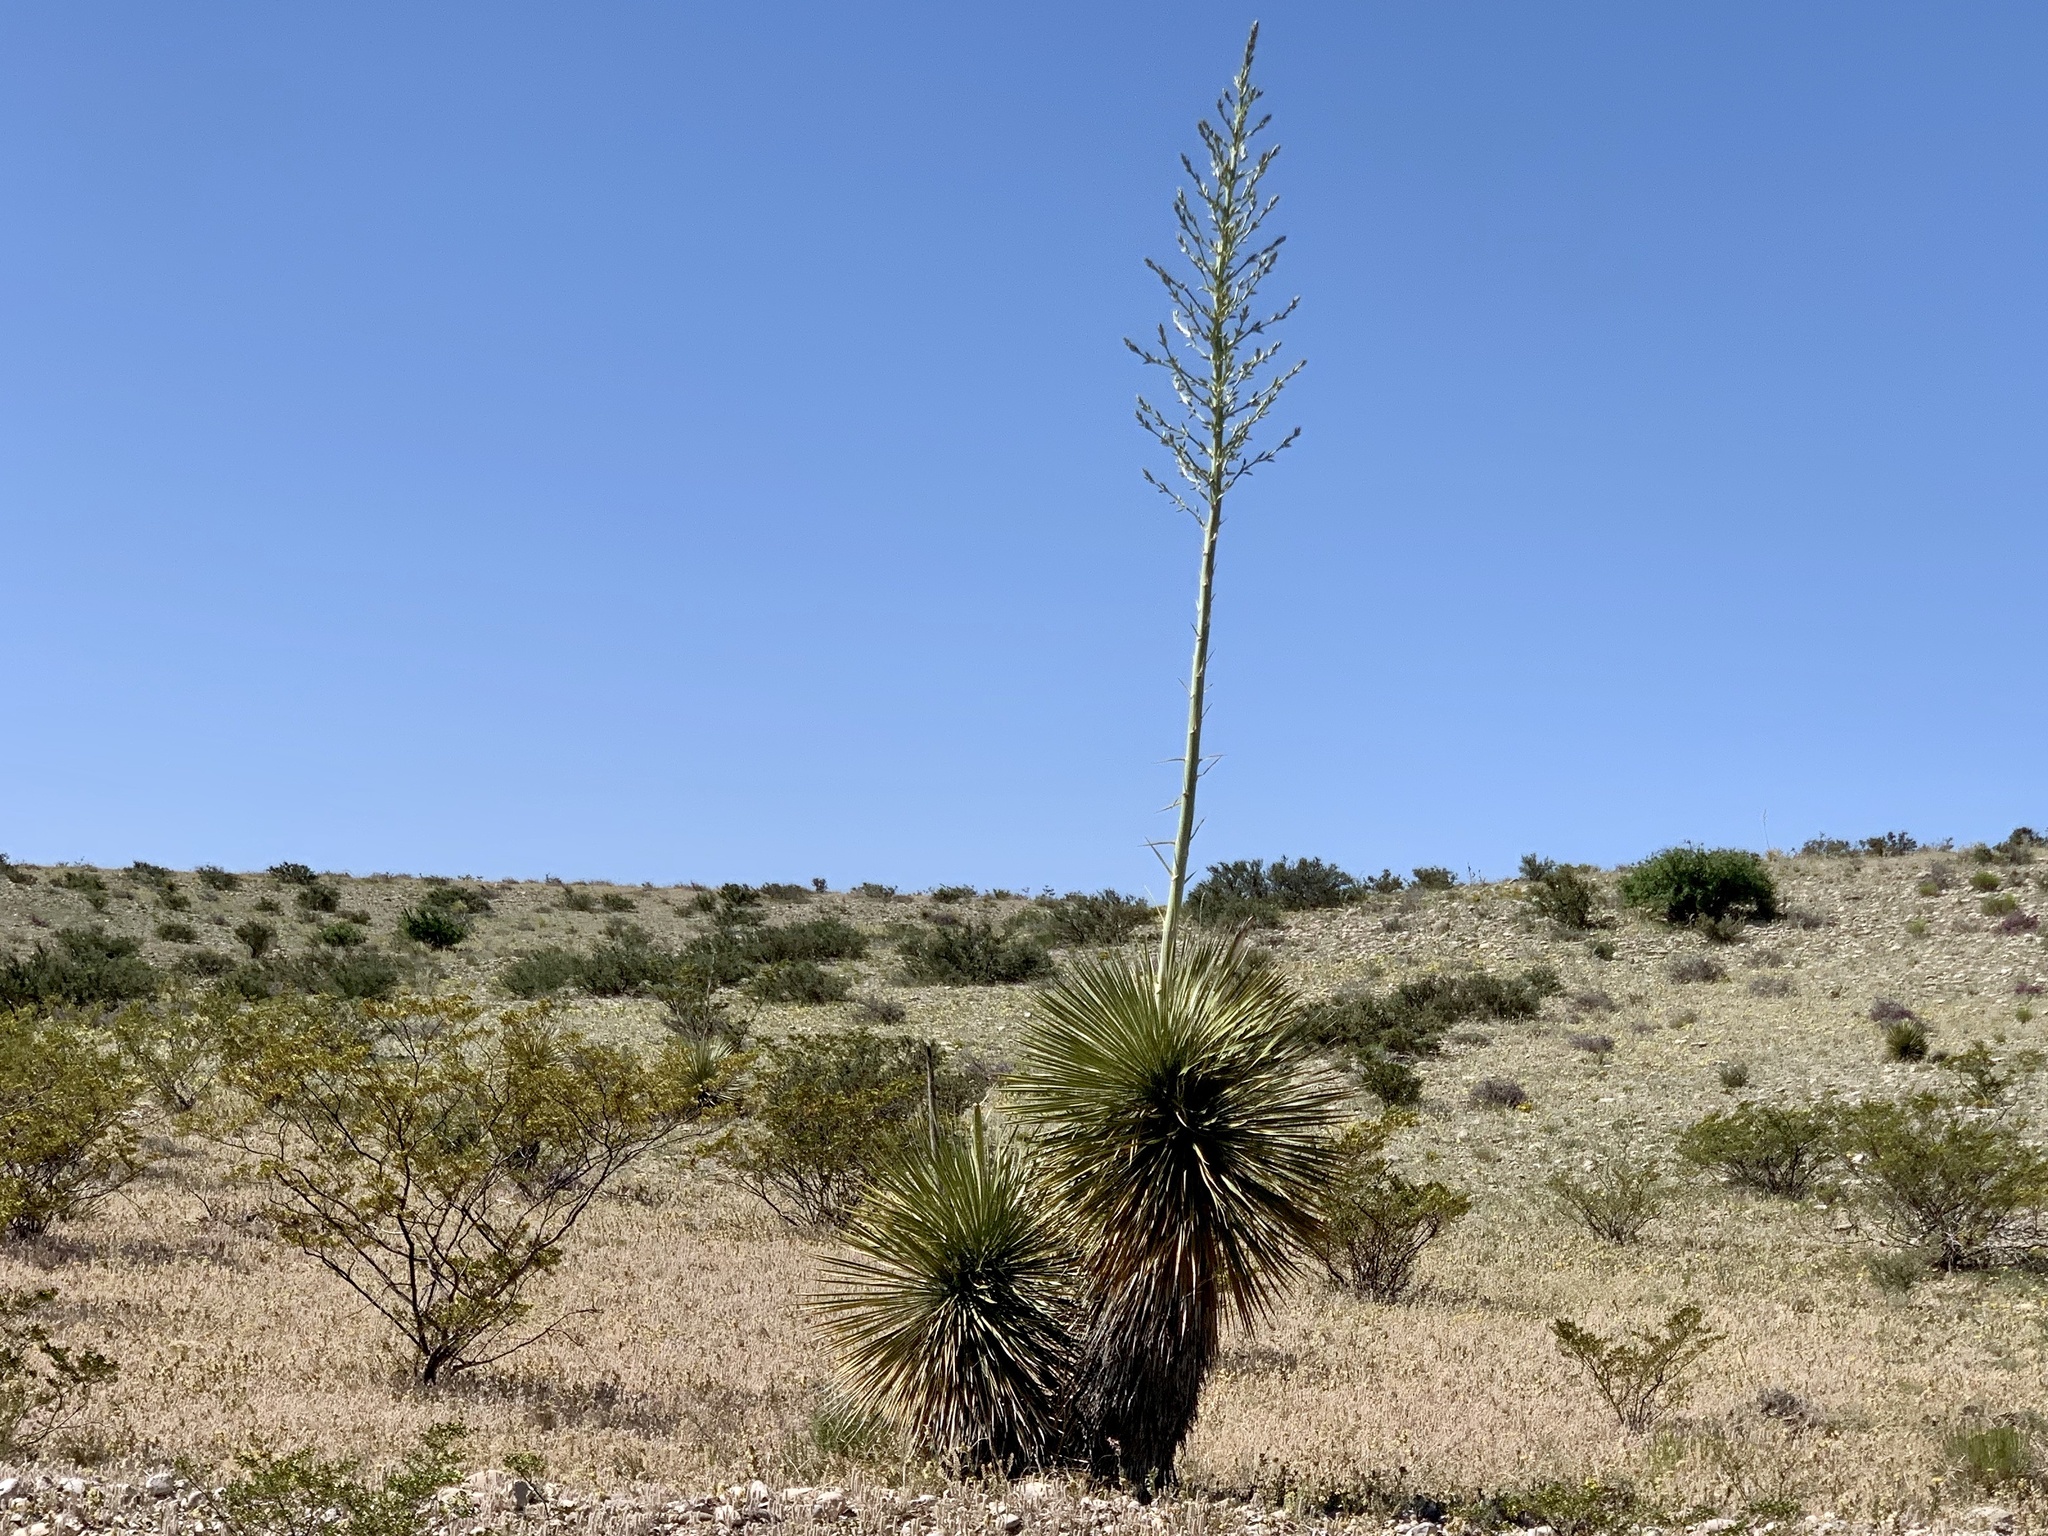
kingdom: Plantae
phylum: Tracheophyta
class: Liliopsida
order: Asparagales
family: Asparagaceae
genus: Yucca
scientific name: Yucca elata
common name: Palmella
